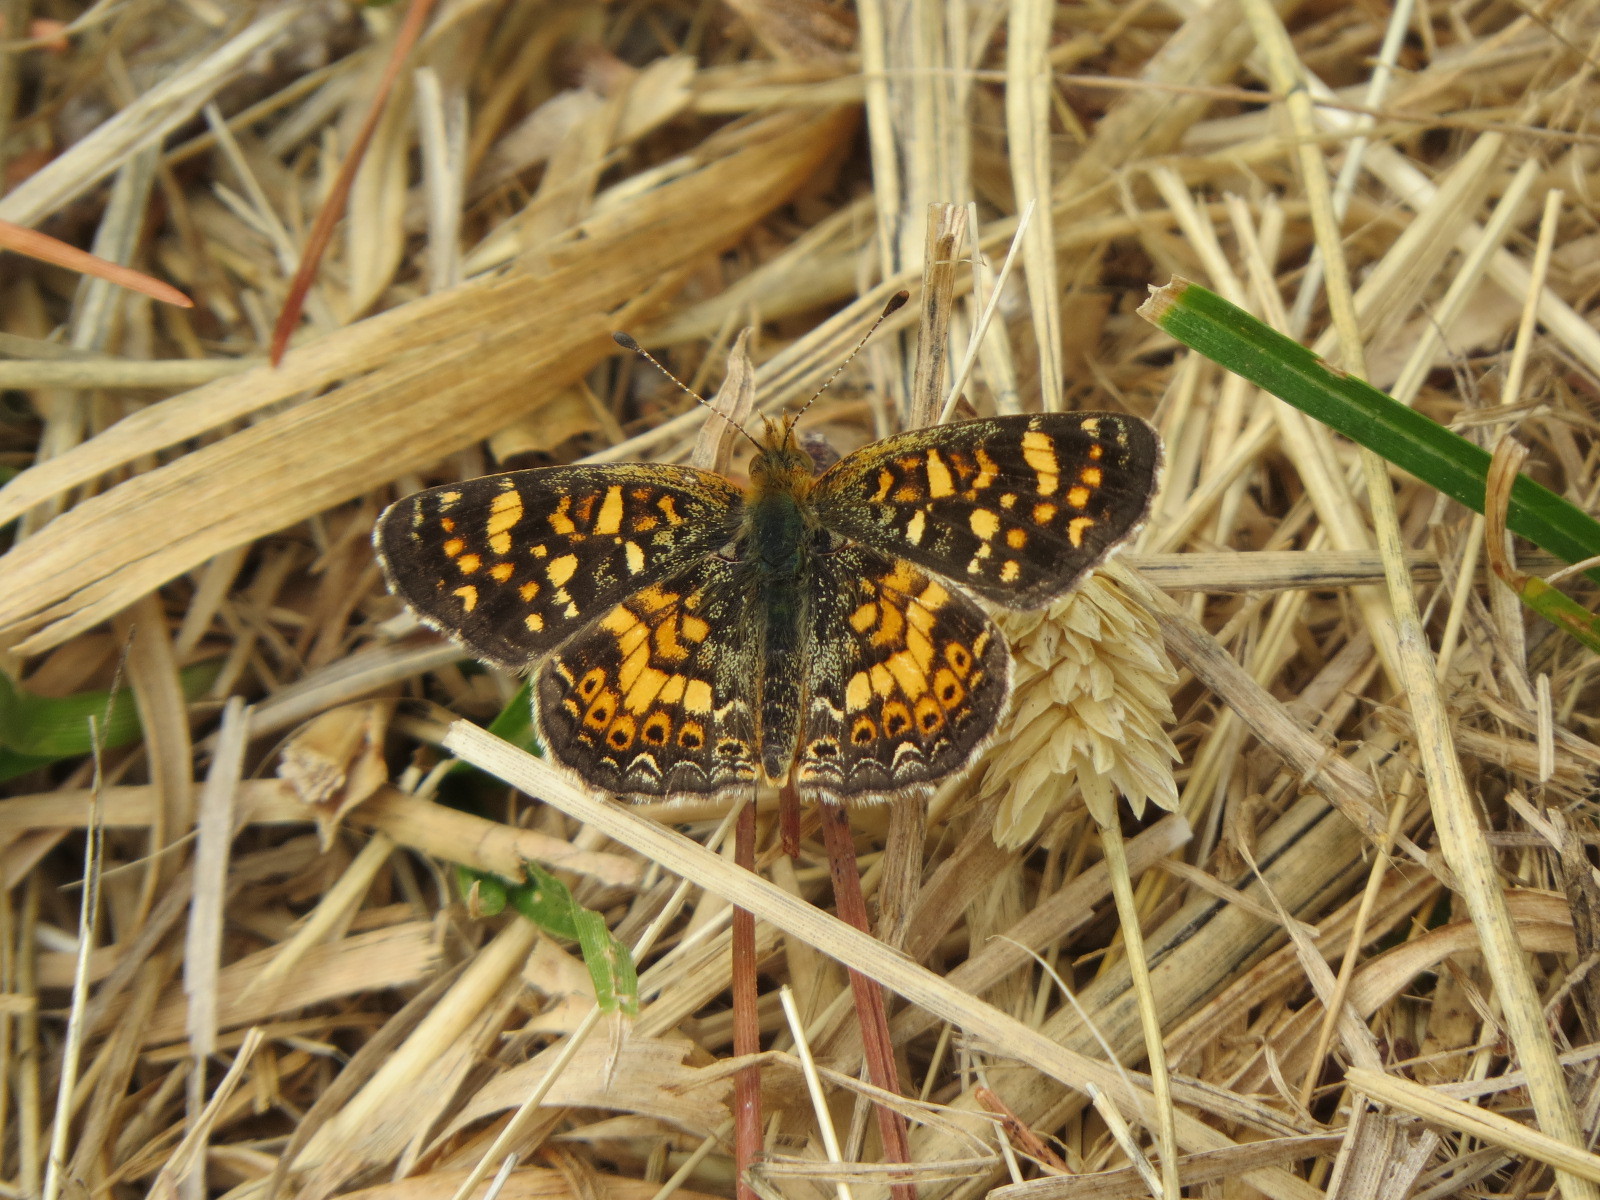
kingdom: Animalia
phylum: Arthropoda
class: Insecta
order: Lepidoptera
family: Nymphalidae
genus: Phyciodes
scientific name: Phyciodes tharos
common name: Pearl crescent
